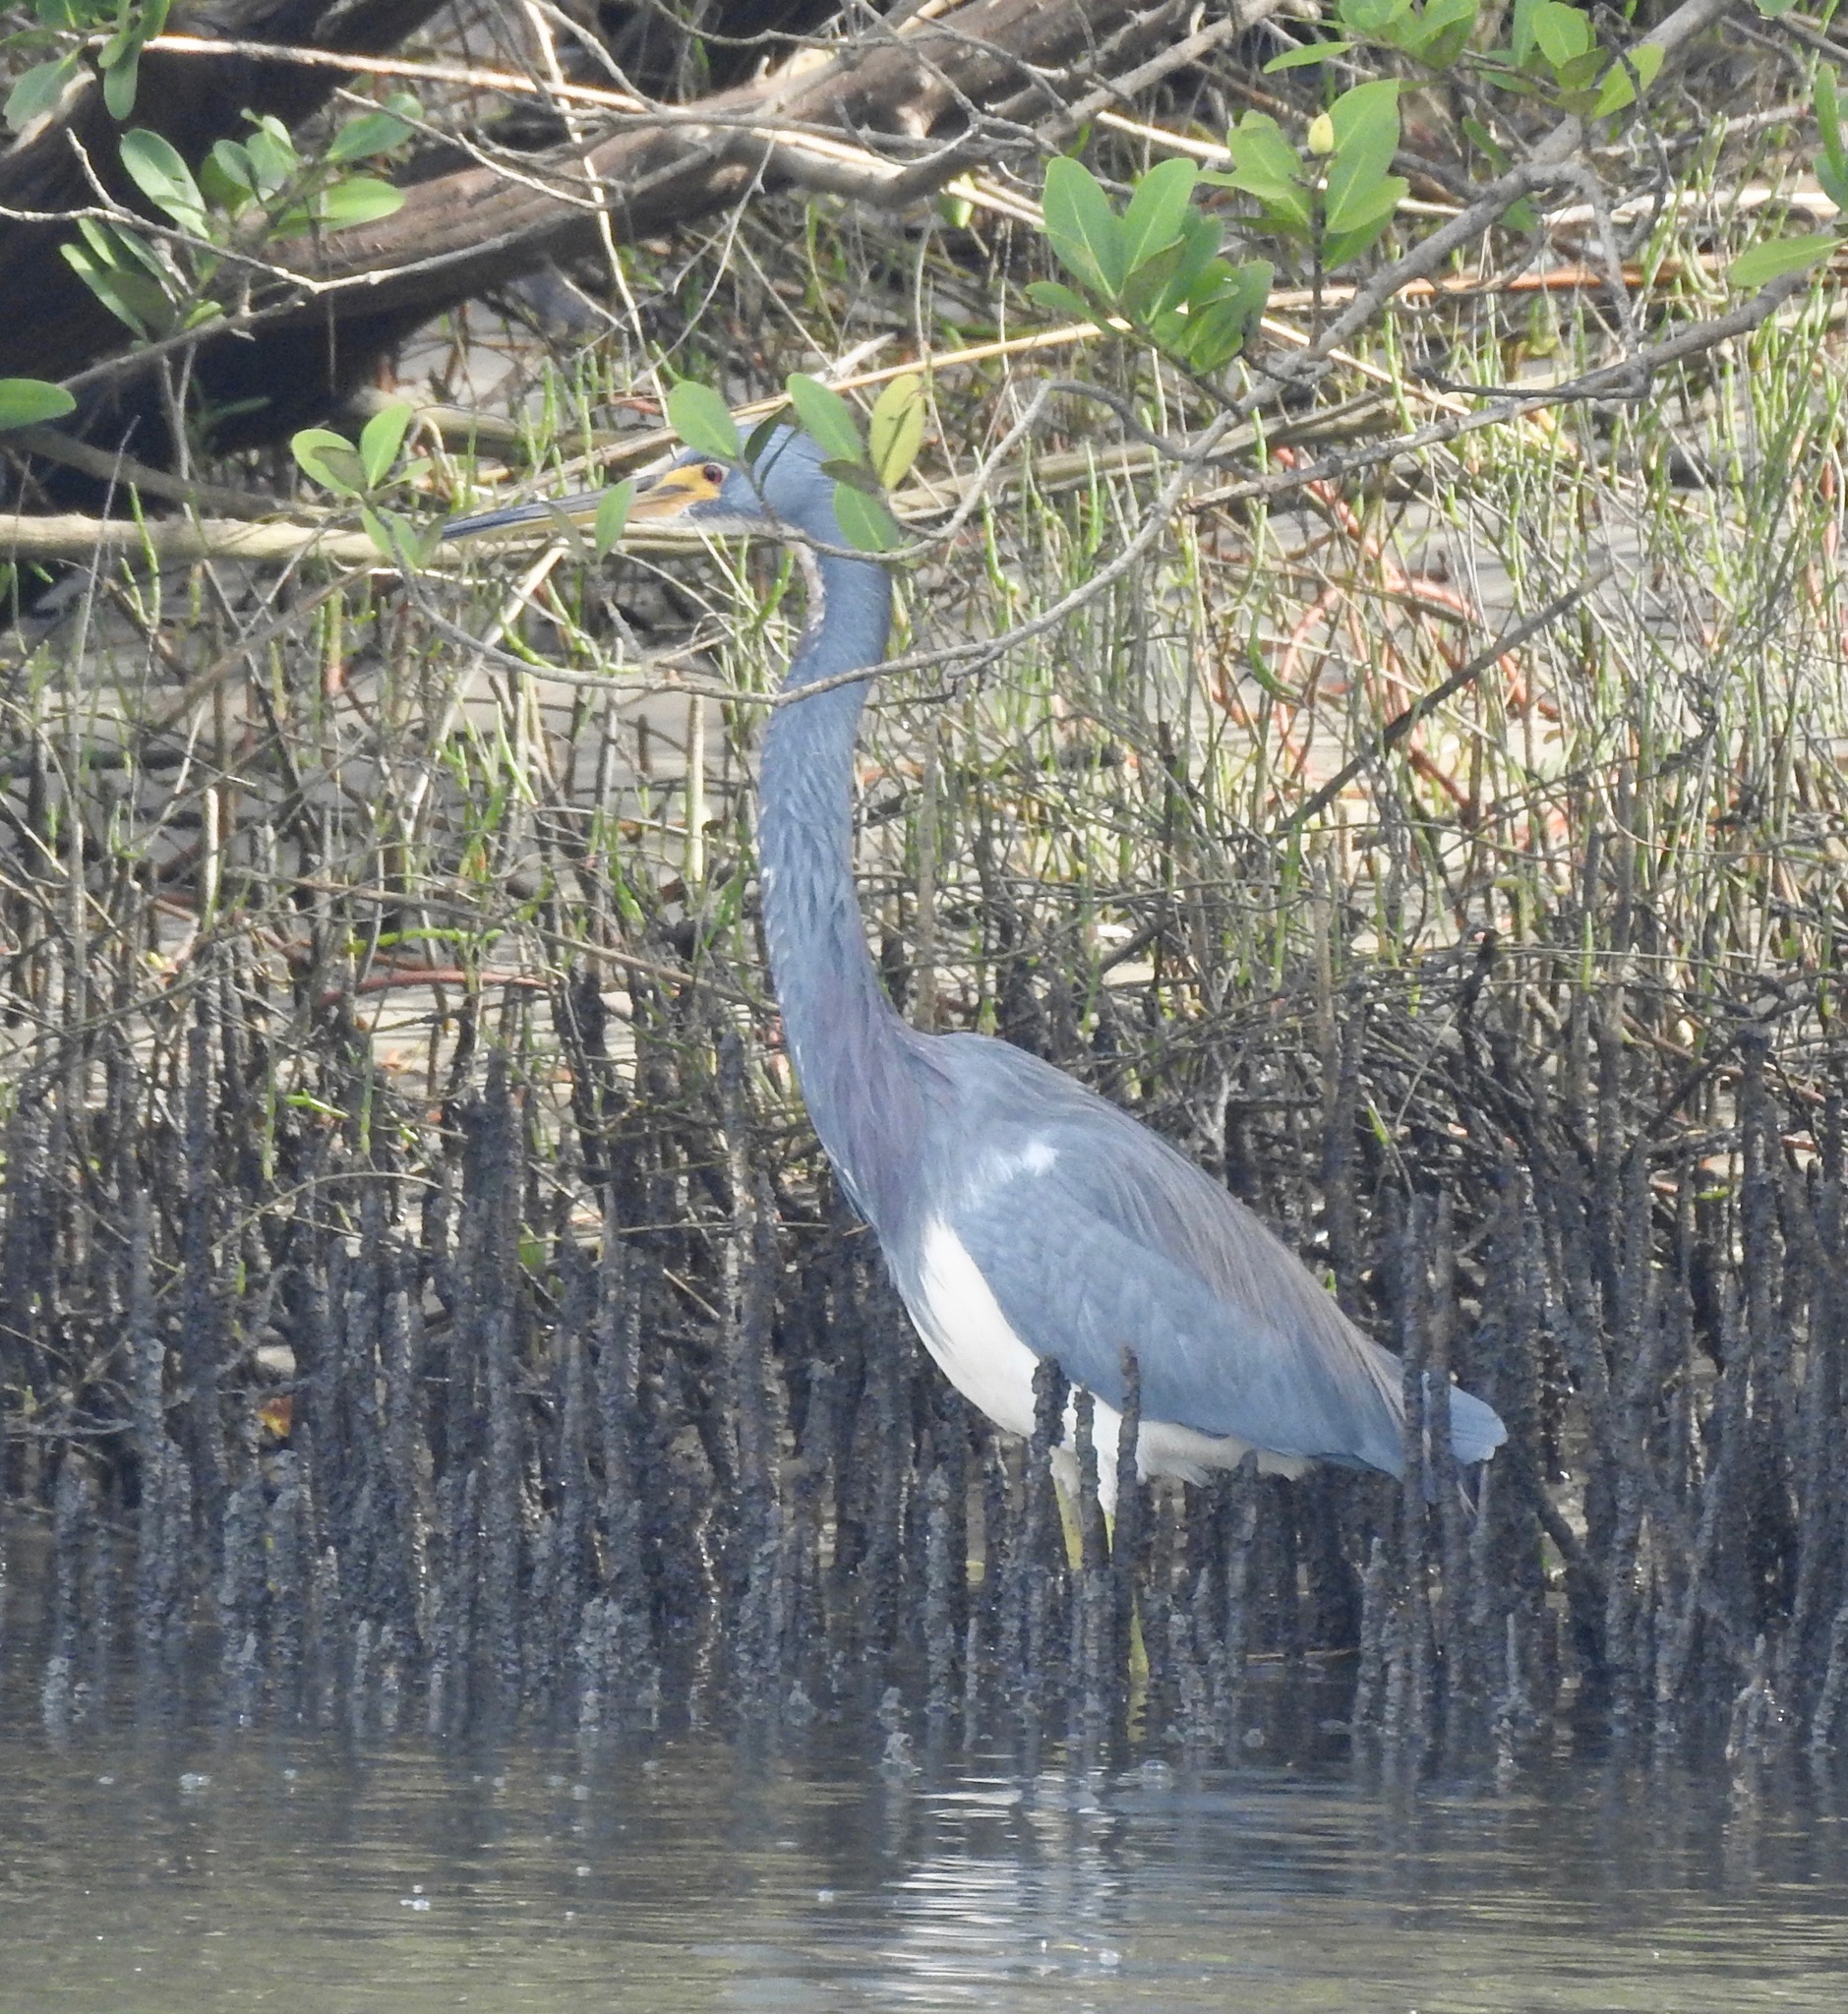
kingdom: Animalia
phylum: Chordata
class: Aves
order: Pelecaniformes
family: Ardeidae
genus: Egretta
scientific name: Egretta tricolor
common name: Tricolored heron
